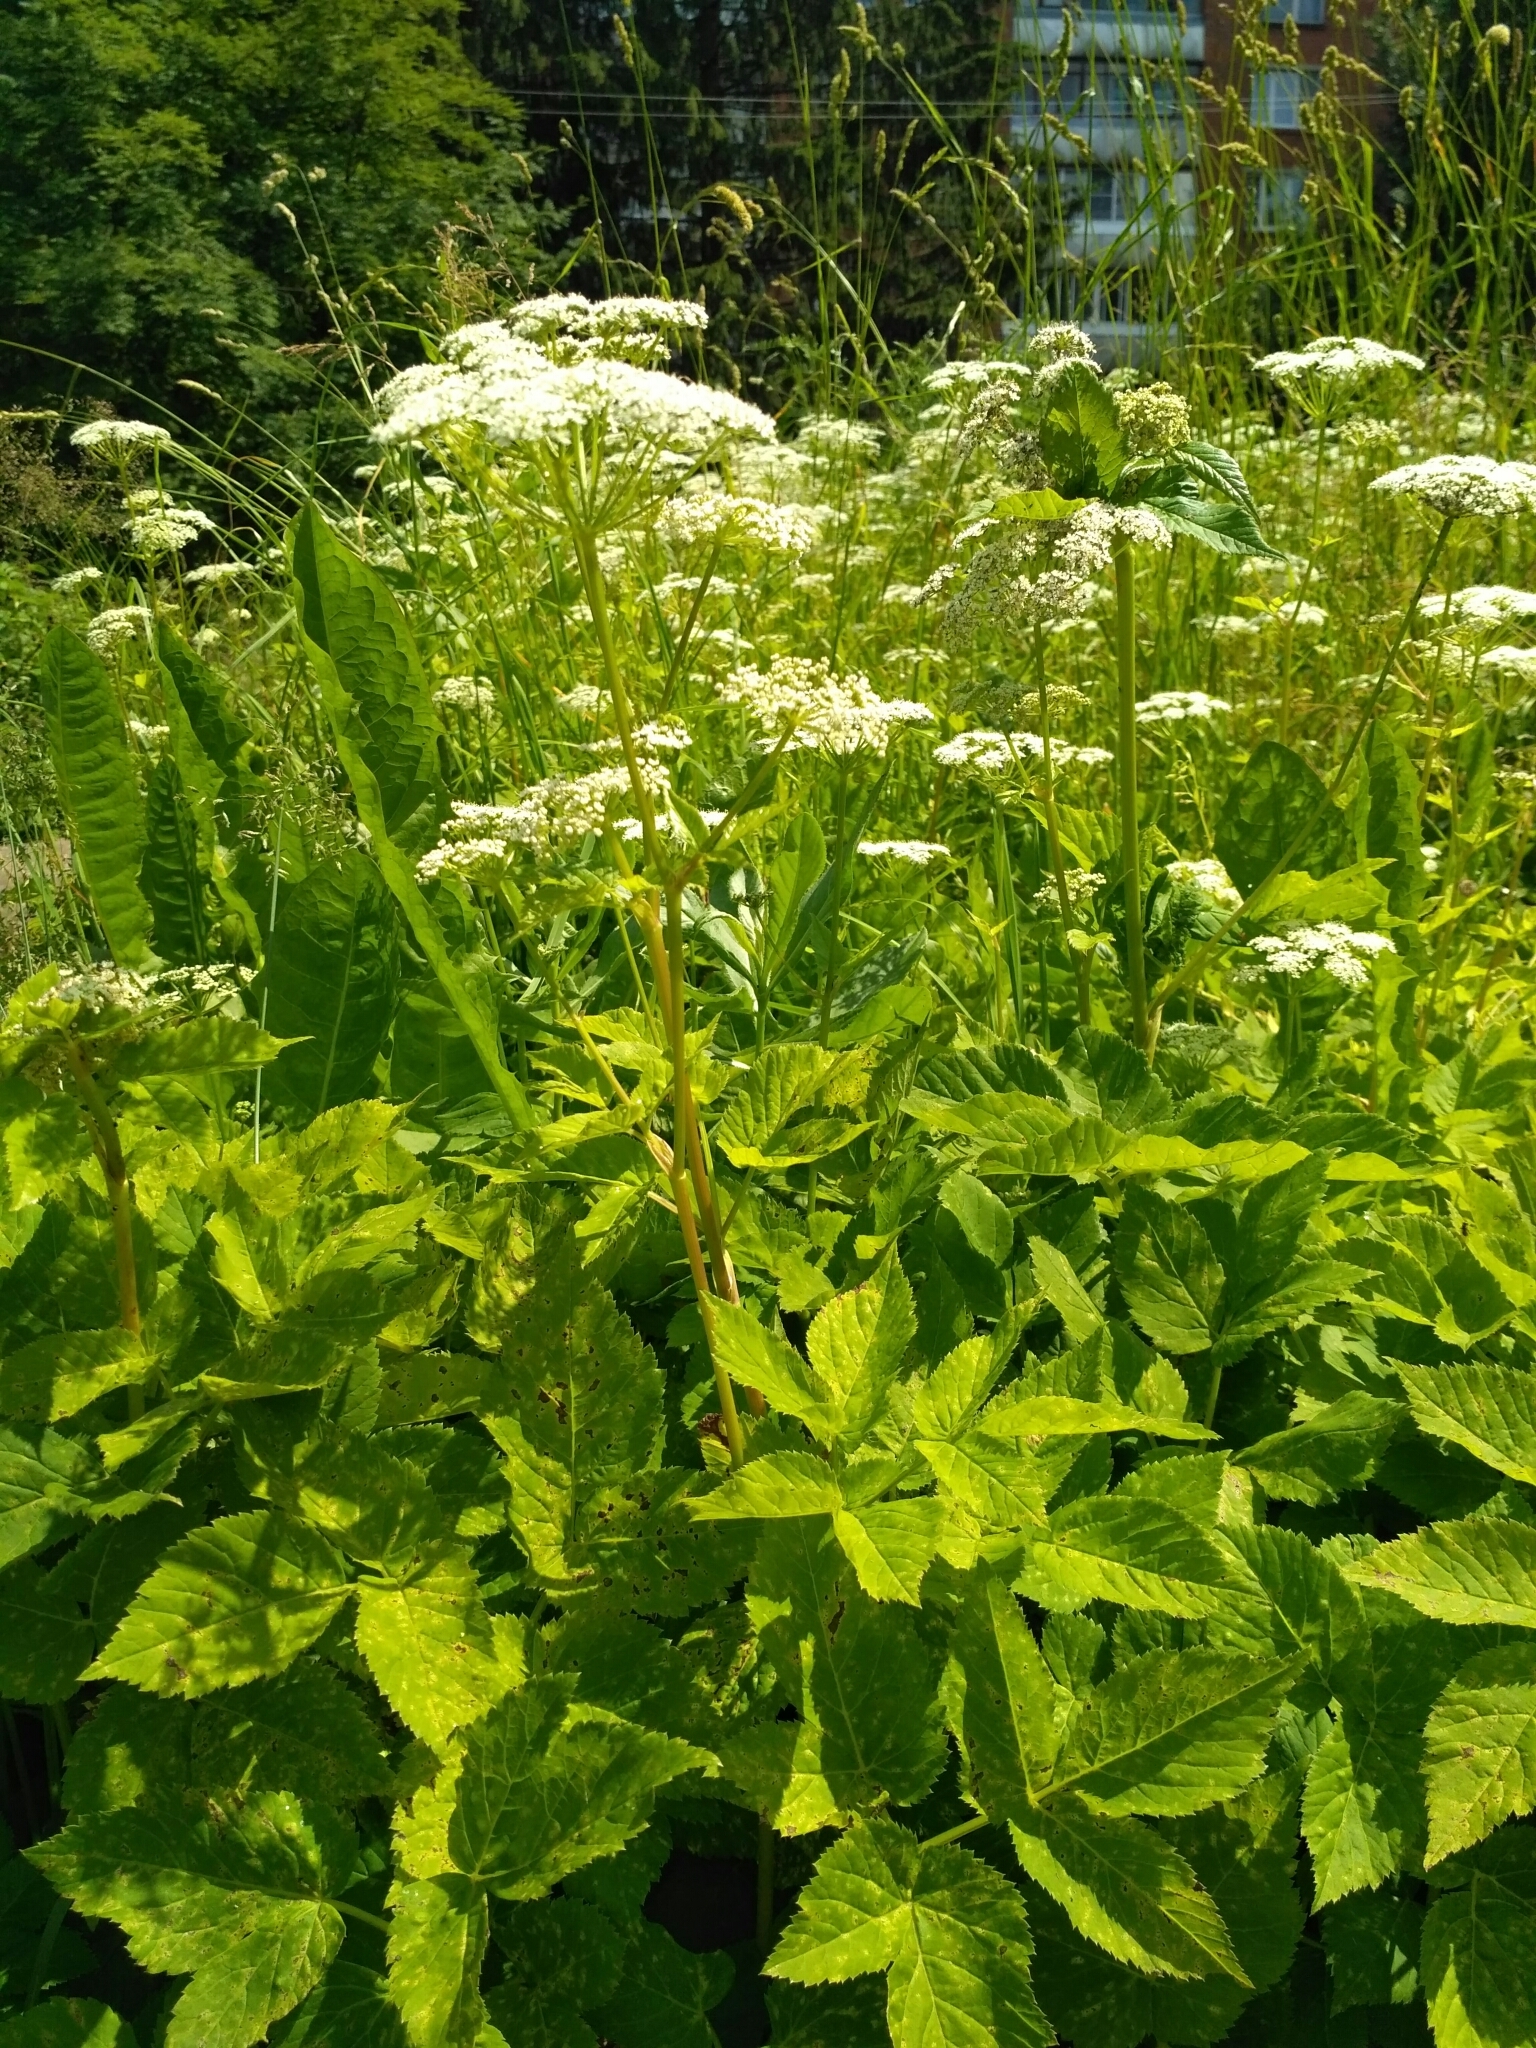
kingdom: Plantae
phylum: Tracheophyta
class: Magnoliopsida
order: Apiales
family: Apiaceae
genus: Aegopodium
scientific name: Aegopodium podagraria
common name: Ground-elder
